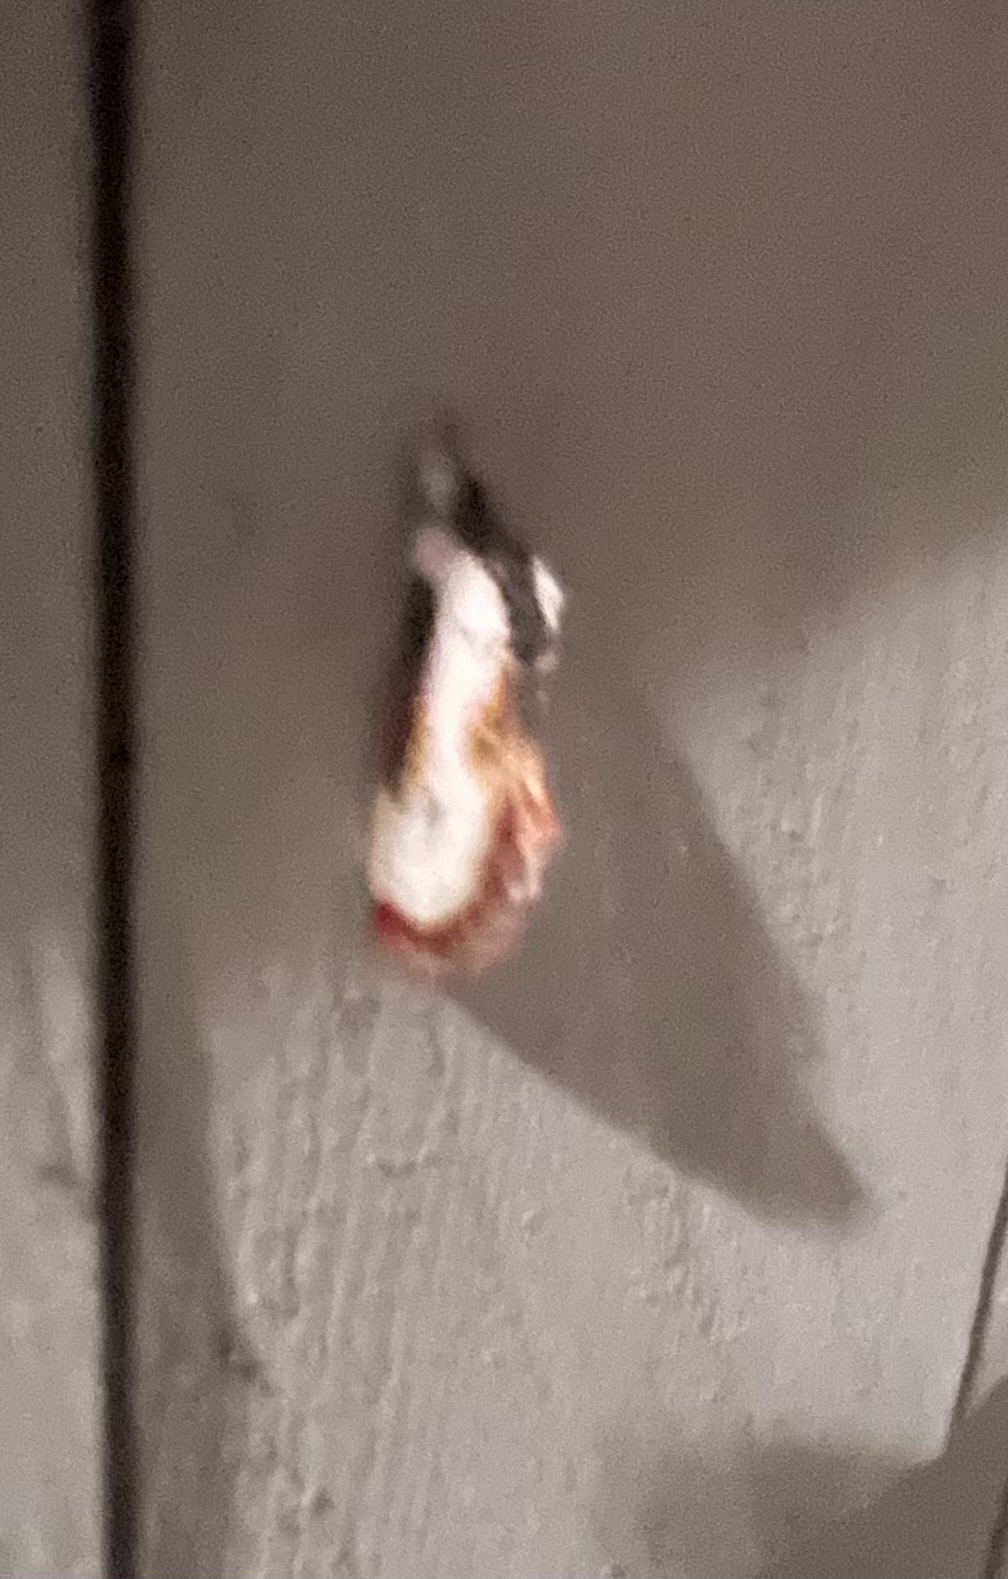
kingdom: Animalia
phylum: Arthropoda
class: Insecta
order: Lepidoptera
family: Noctuidae
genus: Eudryas
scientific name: Eudryas grata
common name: Beautiful wood-nymph
